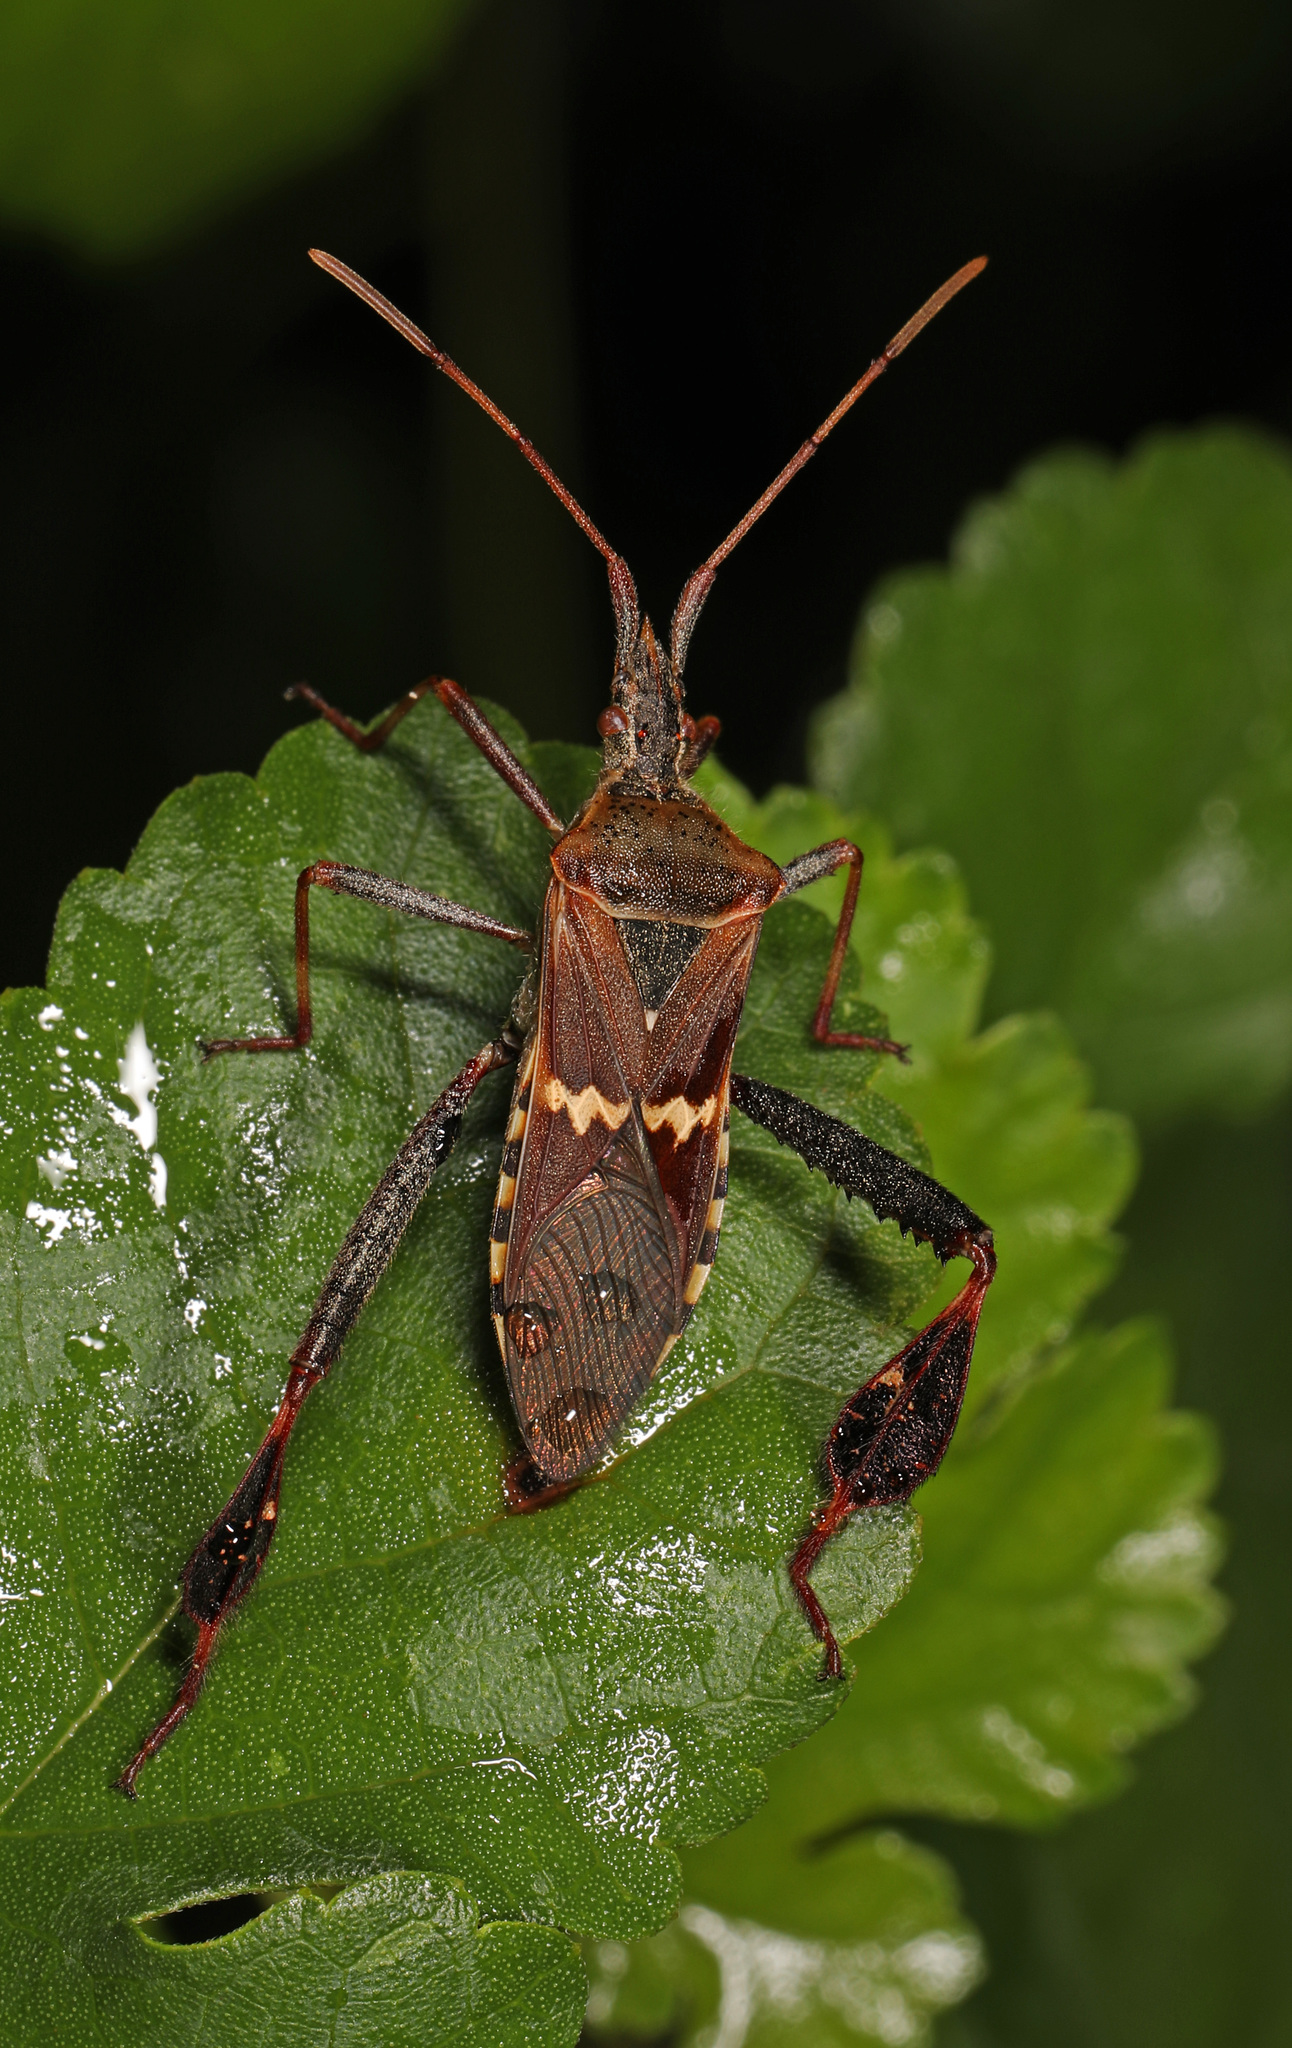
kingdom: Animalia
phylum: Arthropoda
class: Insecta
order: Hemiptera
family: Coreidae
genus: Leptoglossus
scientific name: Leptoglossus clypealis
